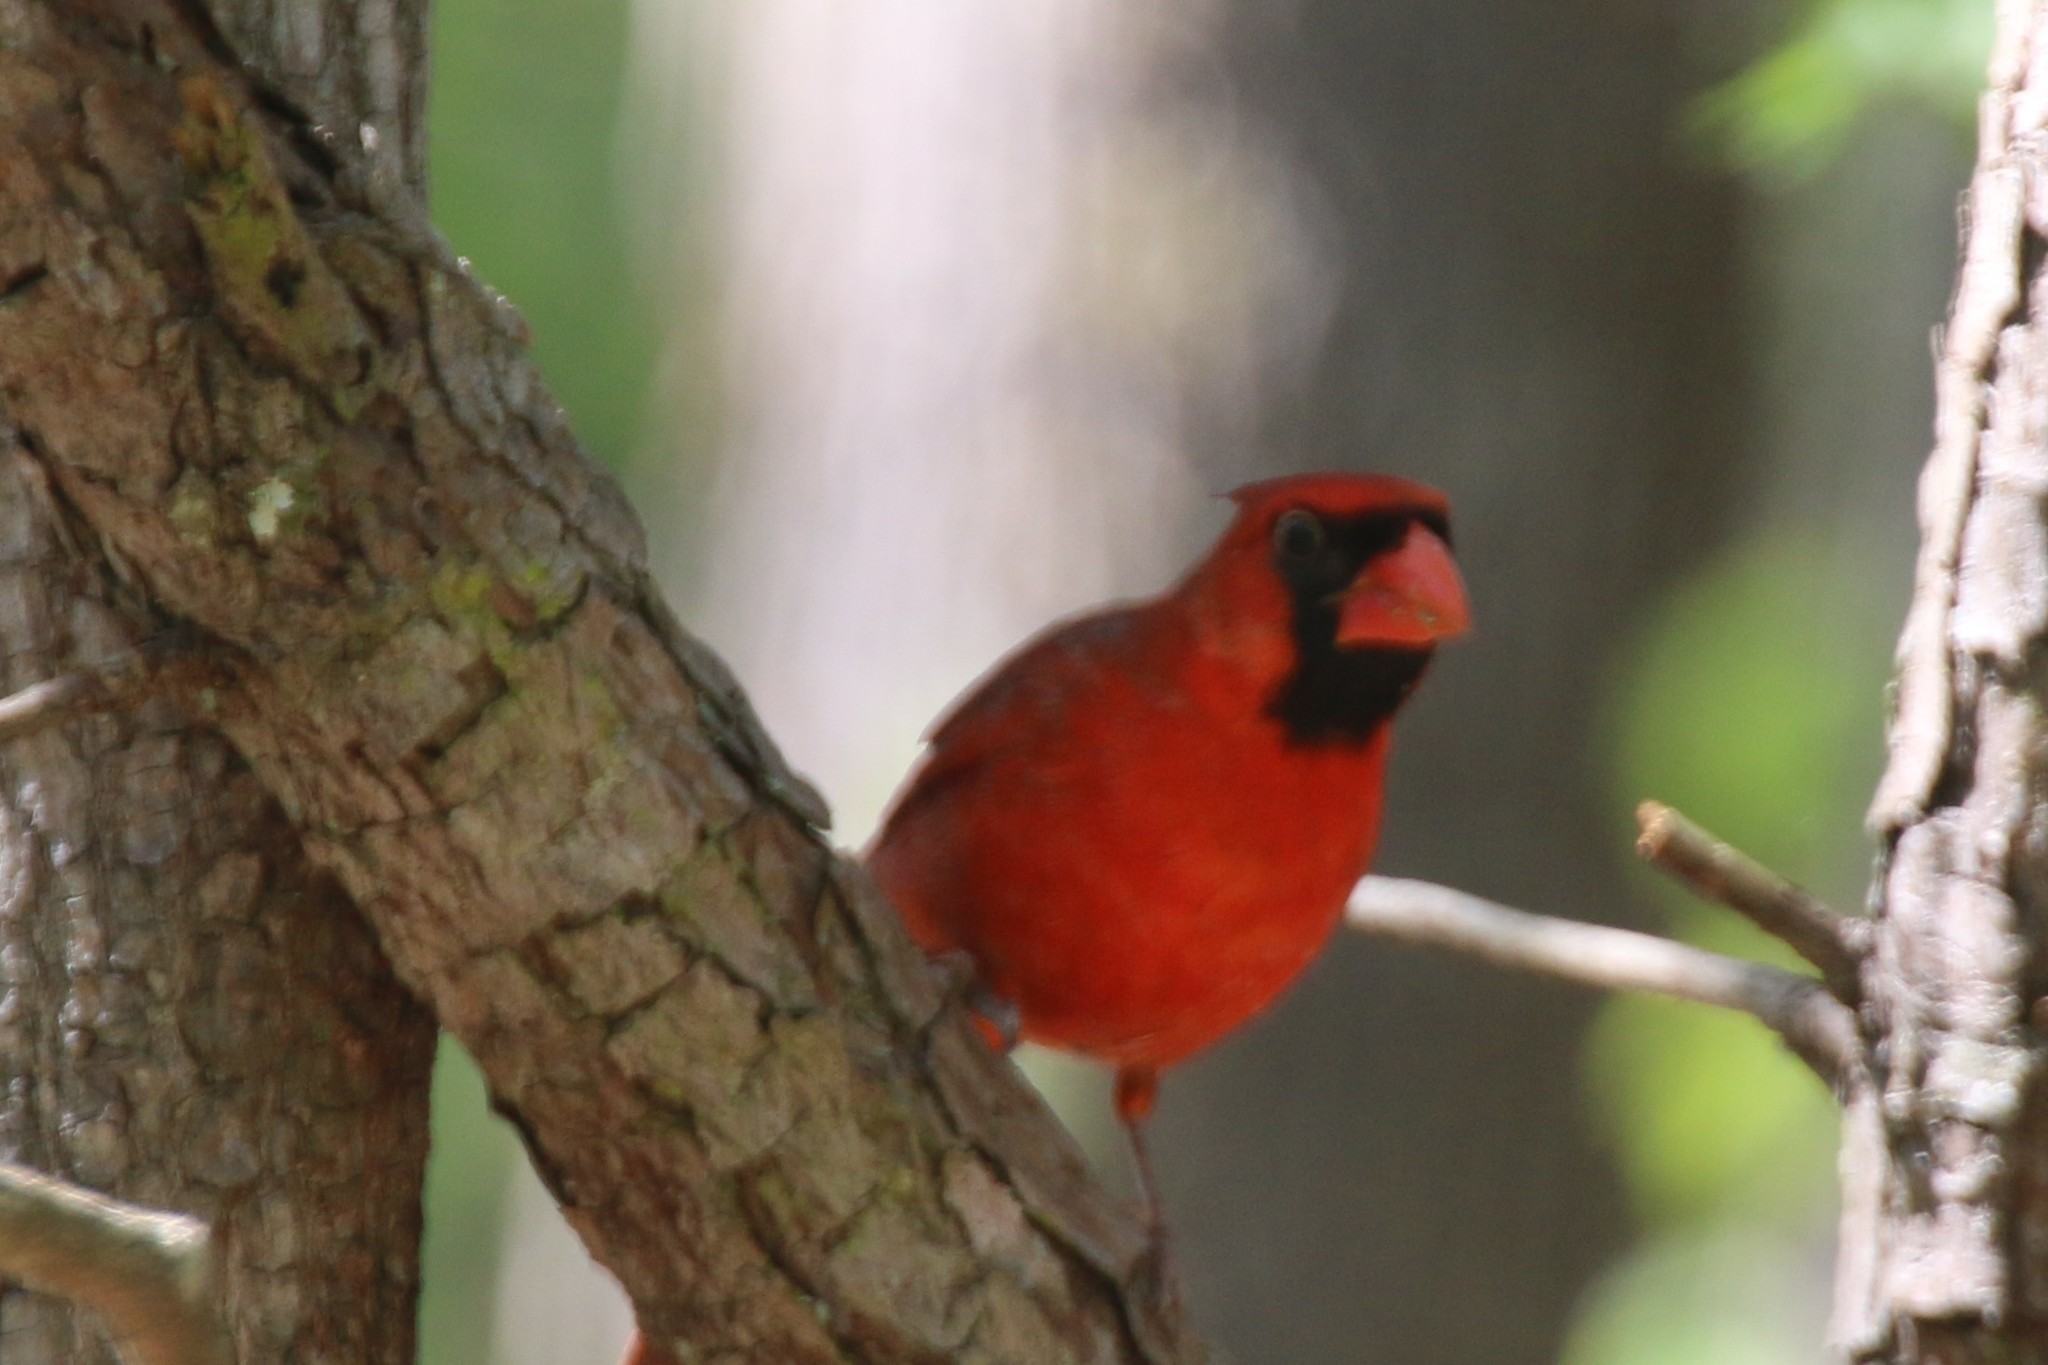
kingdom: Animalia
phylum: Chordata
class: Aves
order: Passeriformes
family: Cardinalidae
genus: Cardinalis
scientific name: Cardinalis cardinalis
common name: Northern cardinal
